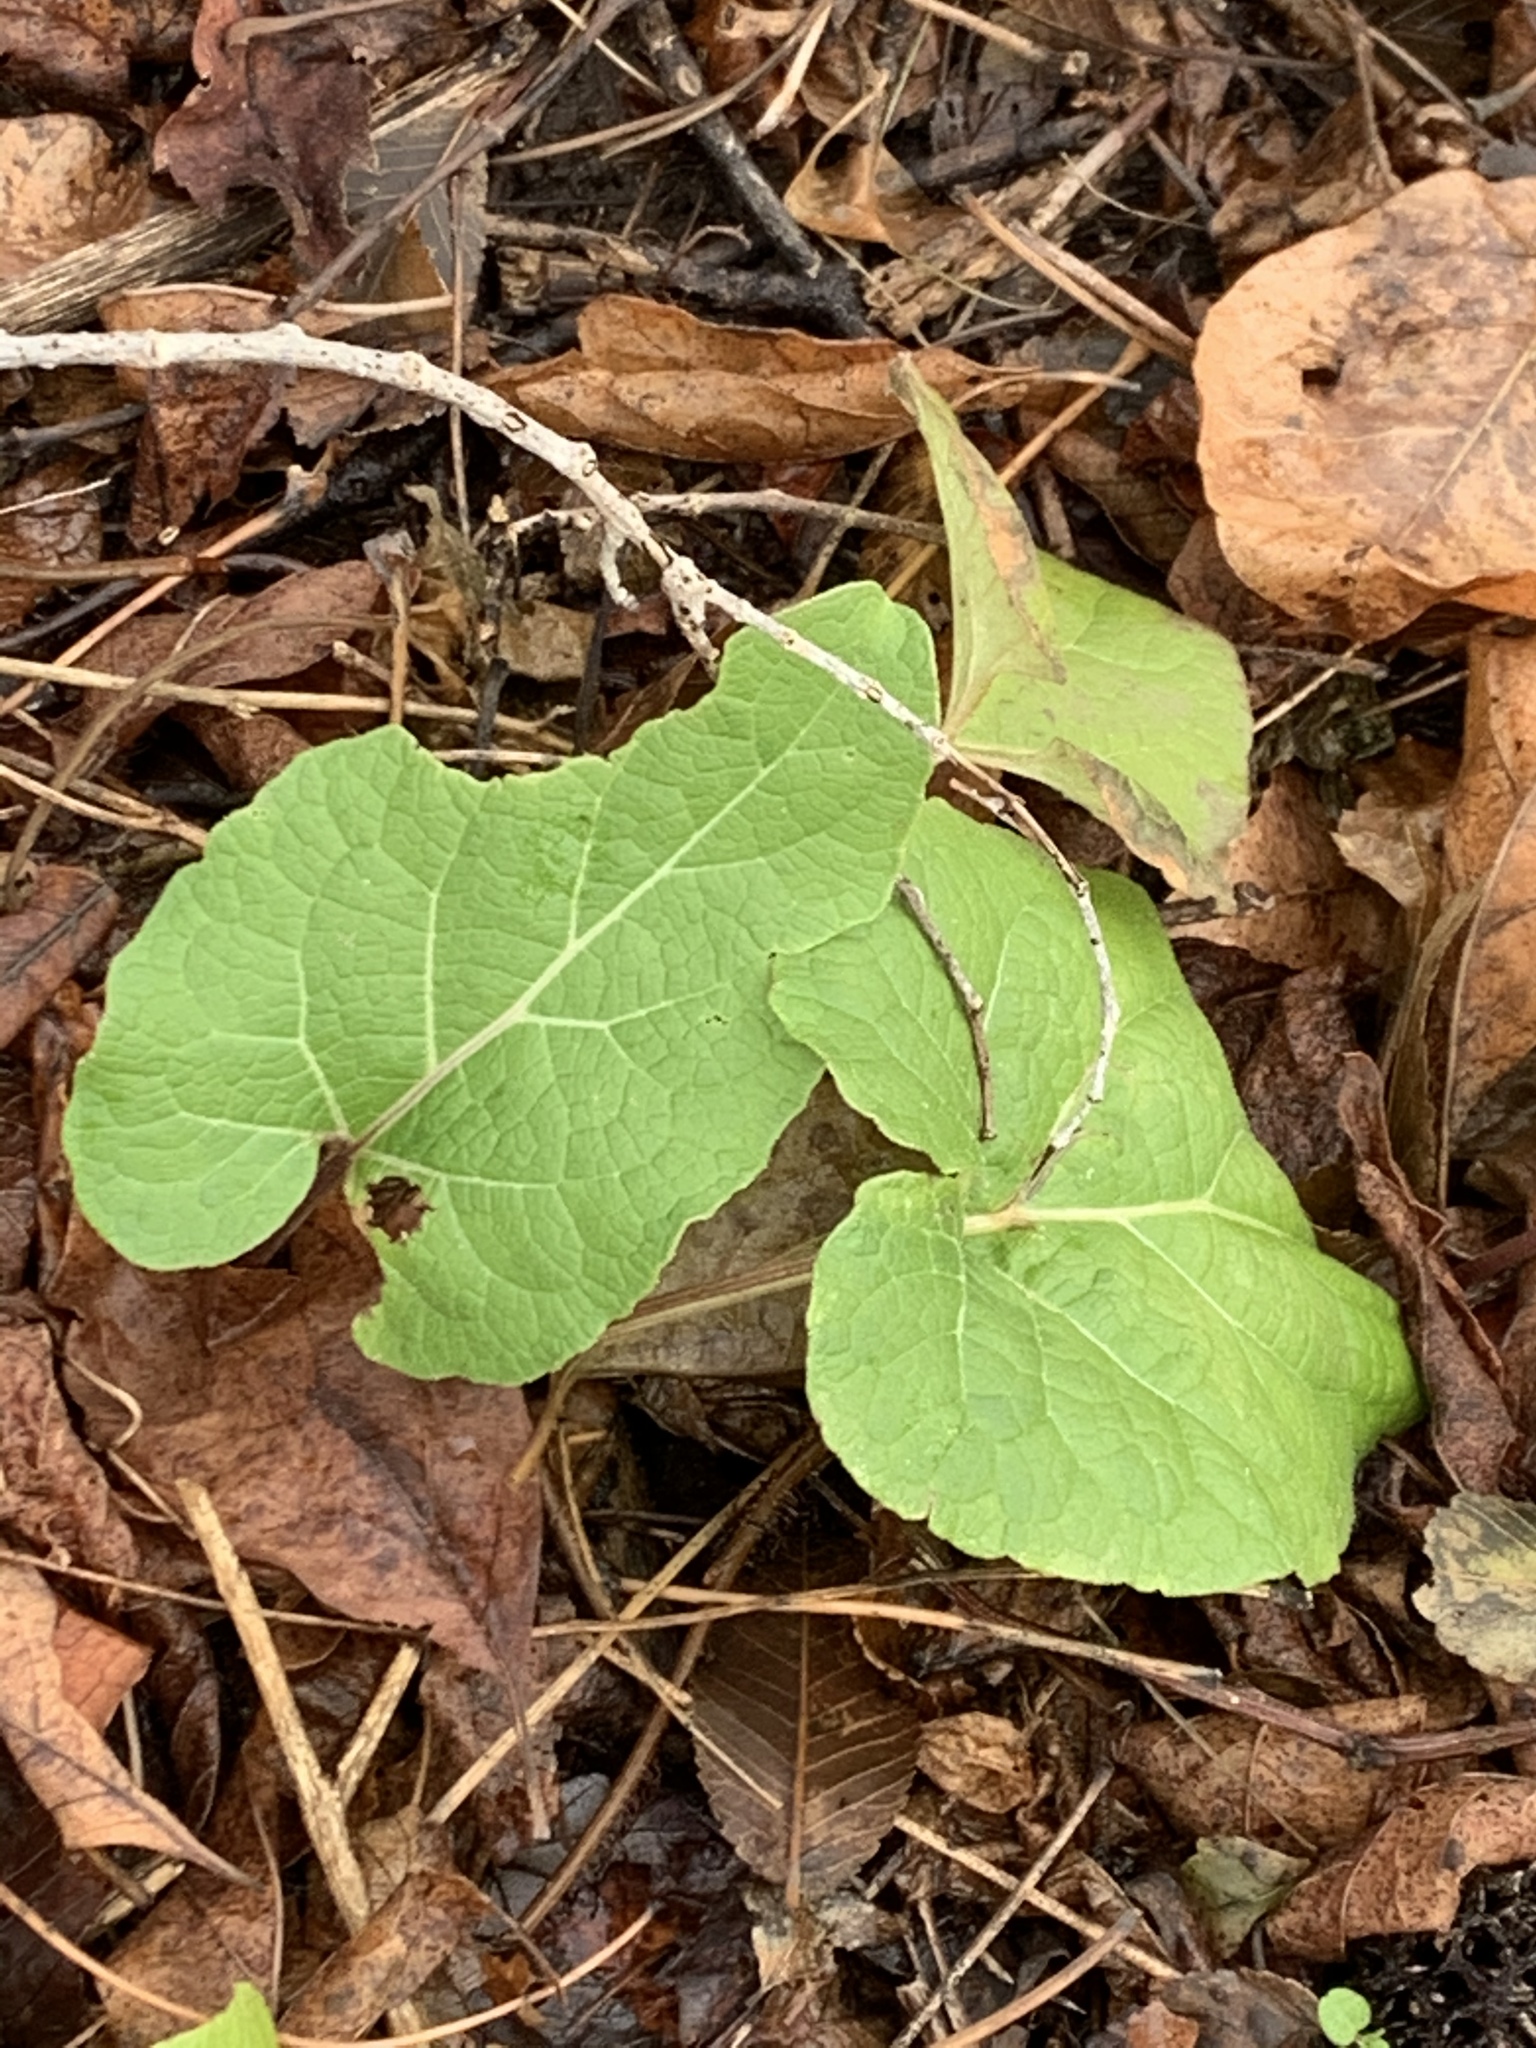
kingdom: Plantae
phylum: Tracheophyta
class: Magnoliopsida
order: Asterales
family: Asteraceae
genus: Arctium
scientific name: Arctium minus
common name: Lesser burdock
